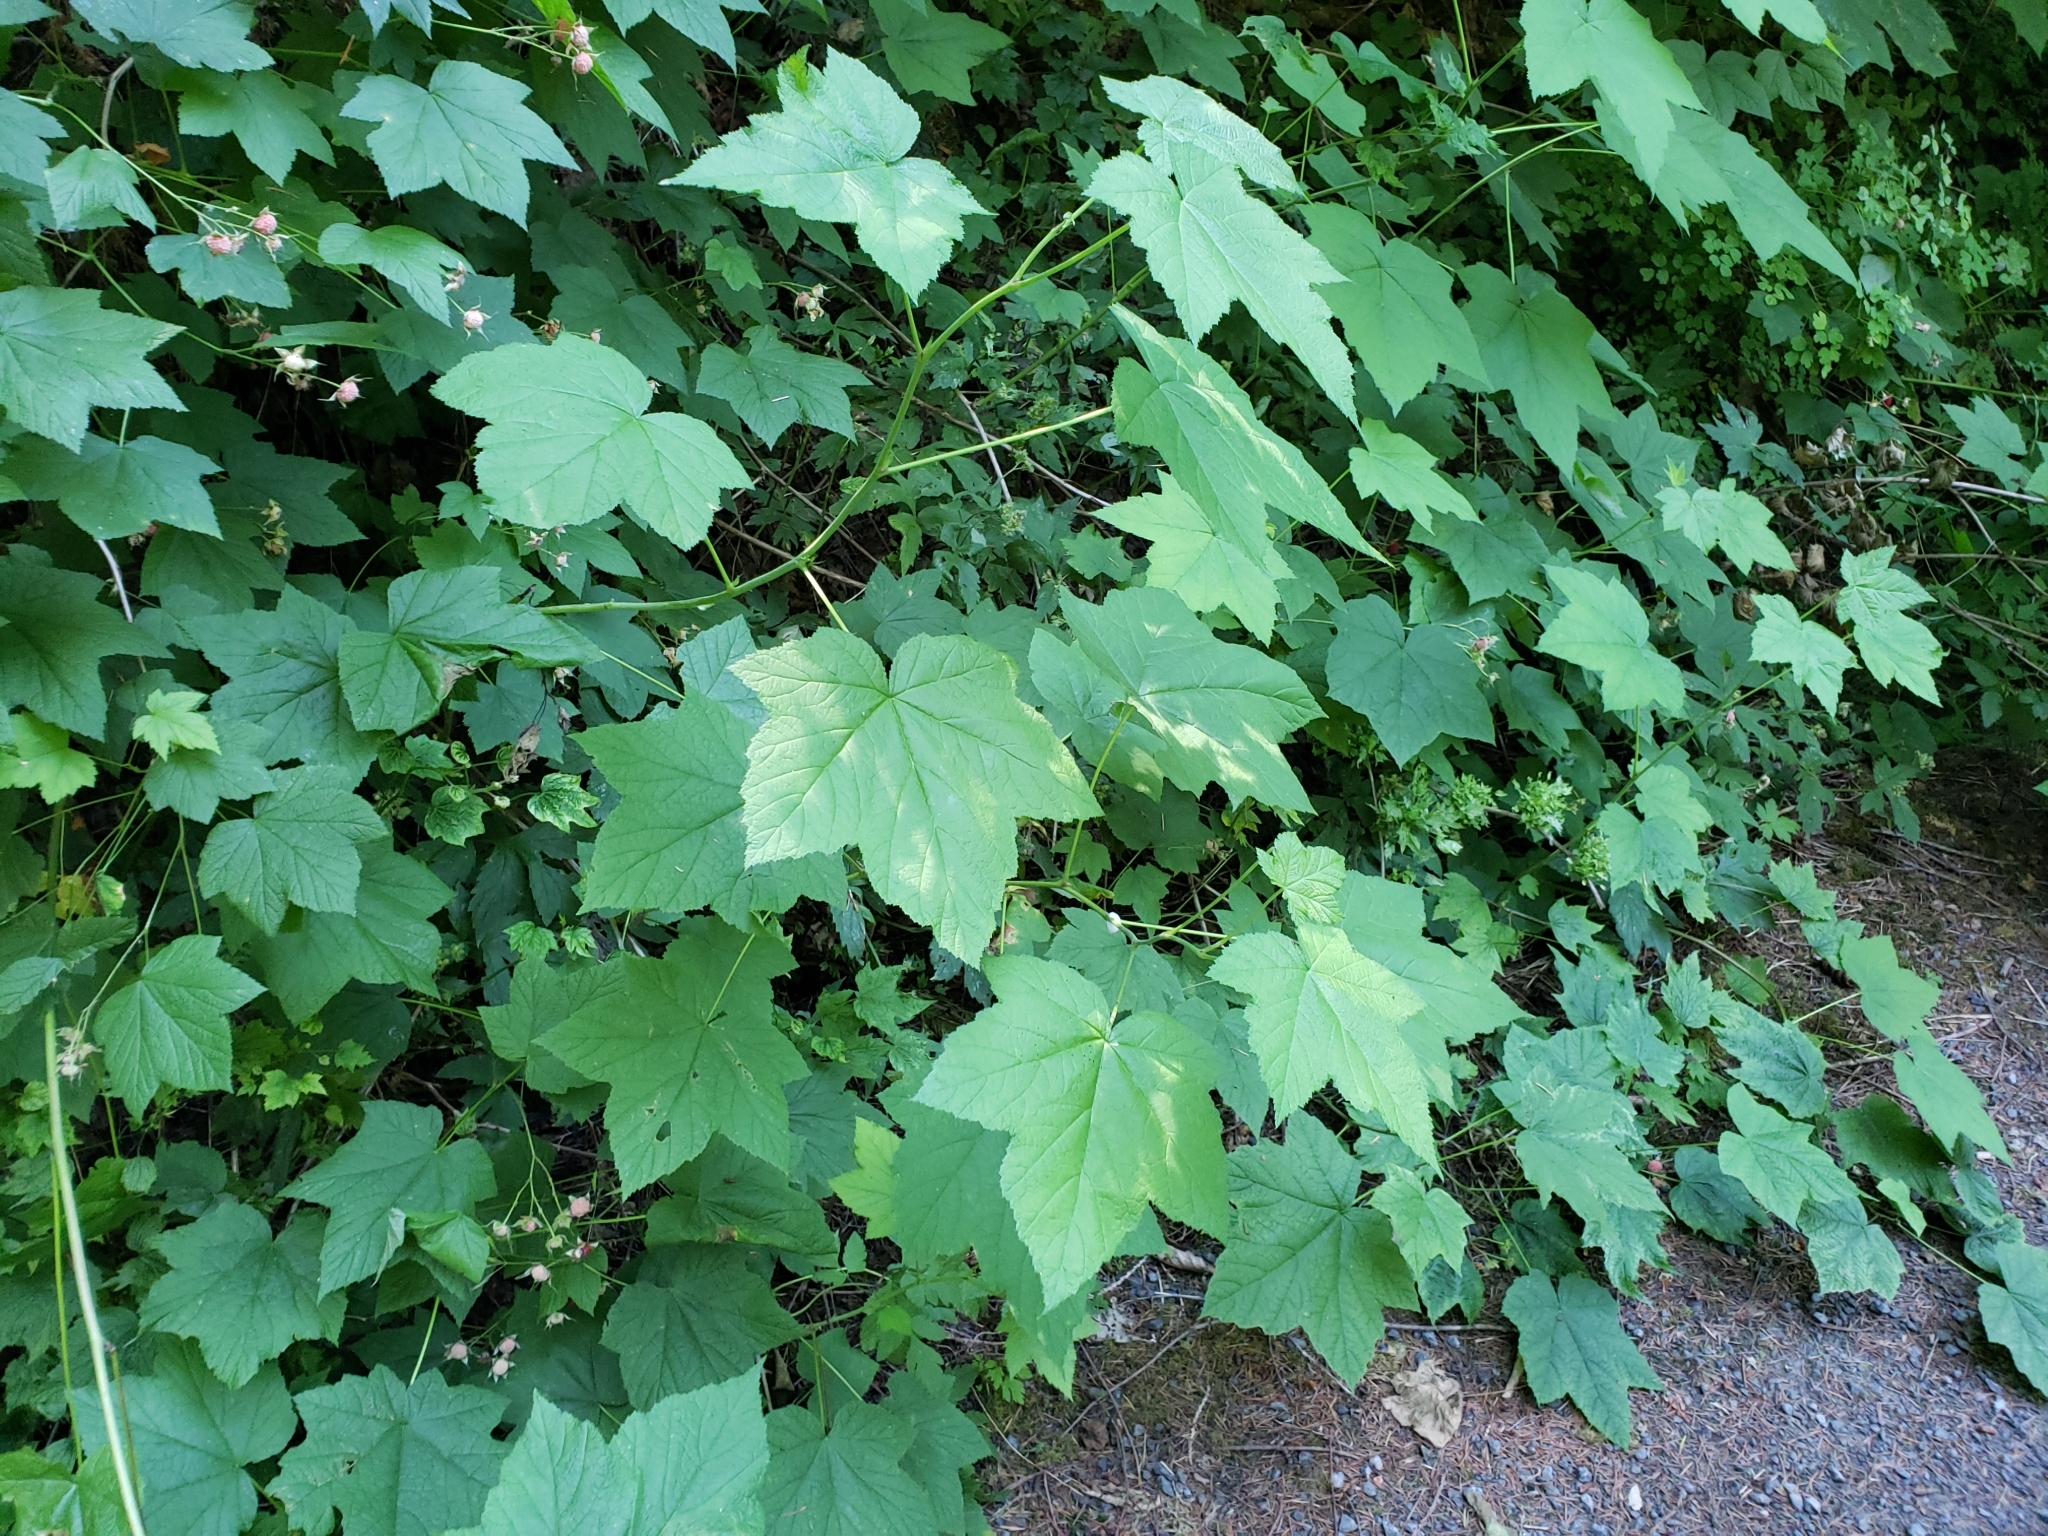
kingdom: Plantae
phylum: Tracheophyta
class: Magnoliopsida
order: Rosales
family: Rosaceae
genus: Rubus
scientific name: Rubus parviflorus
